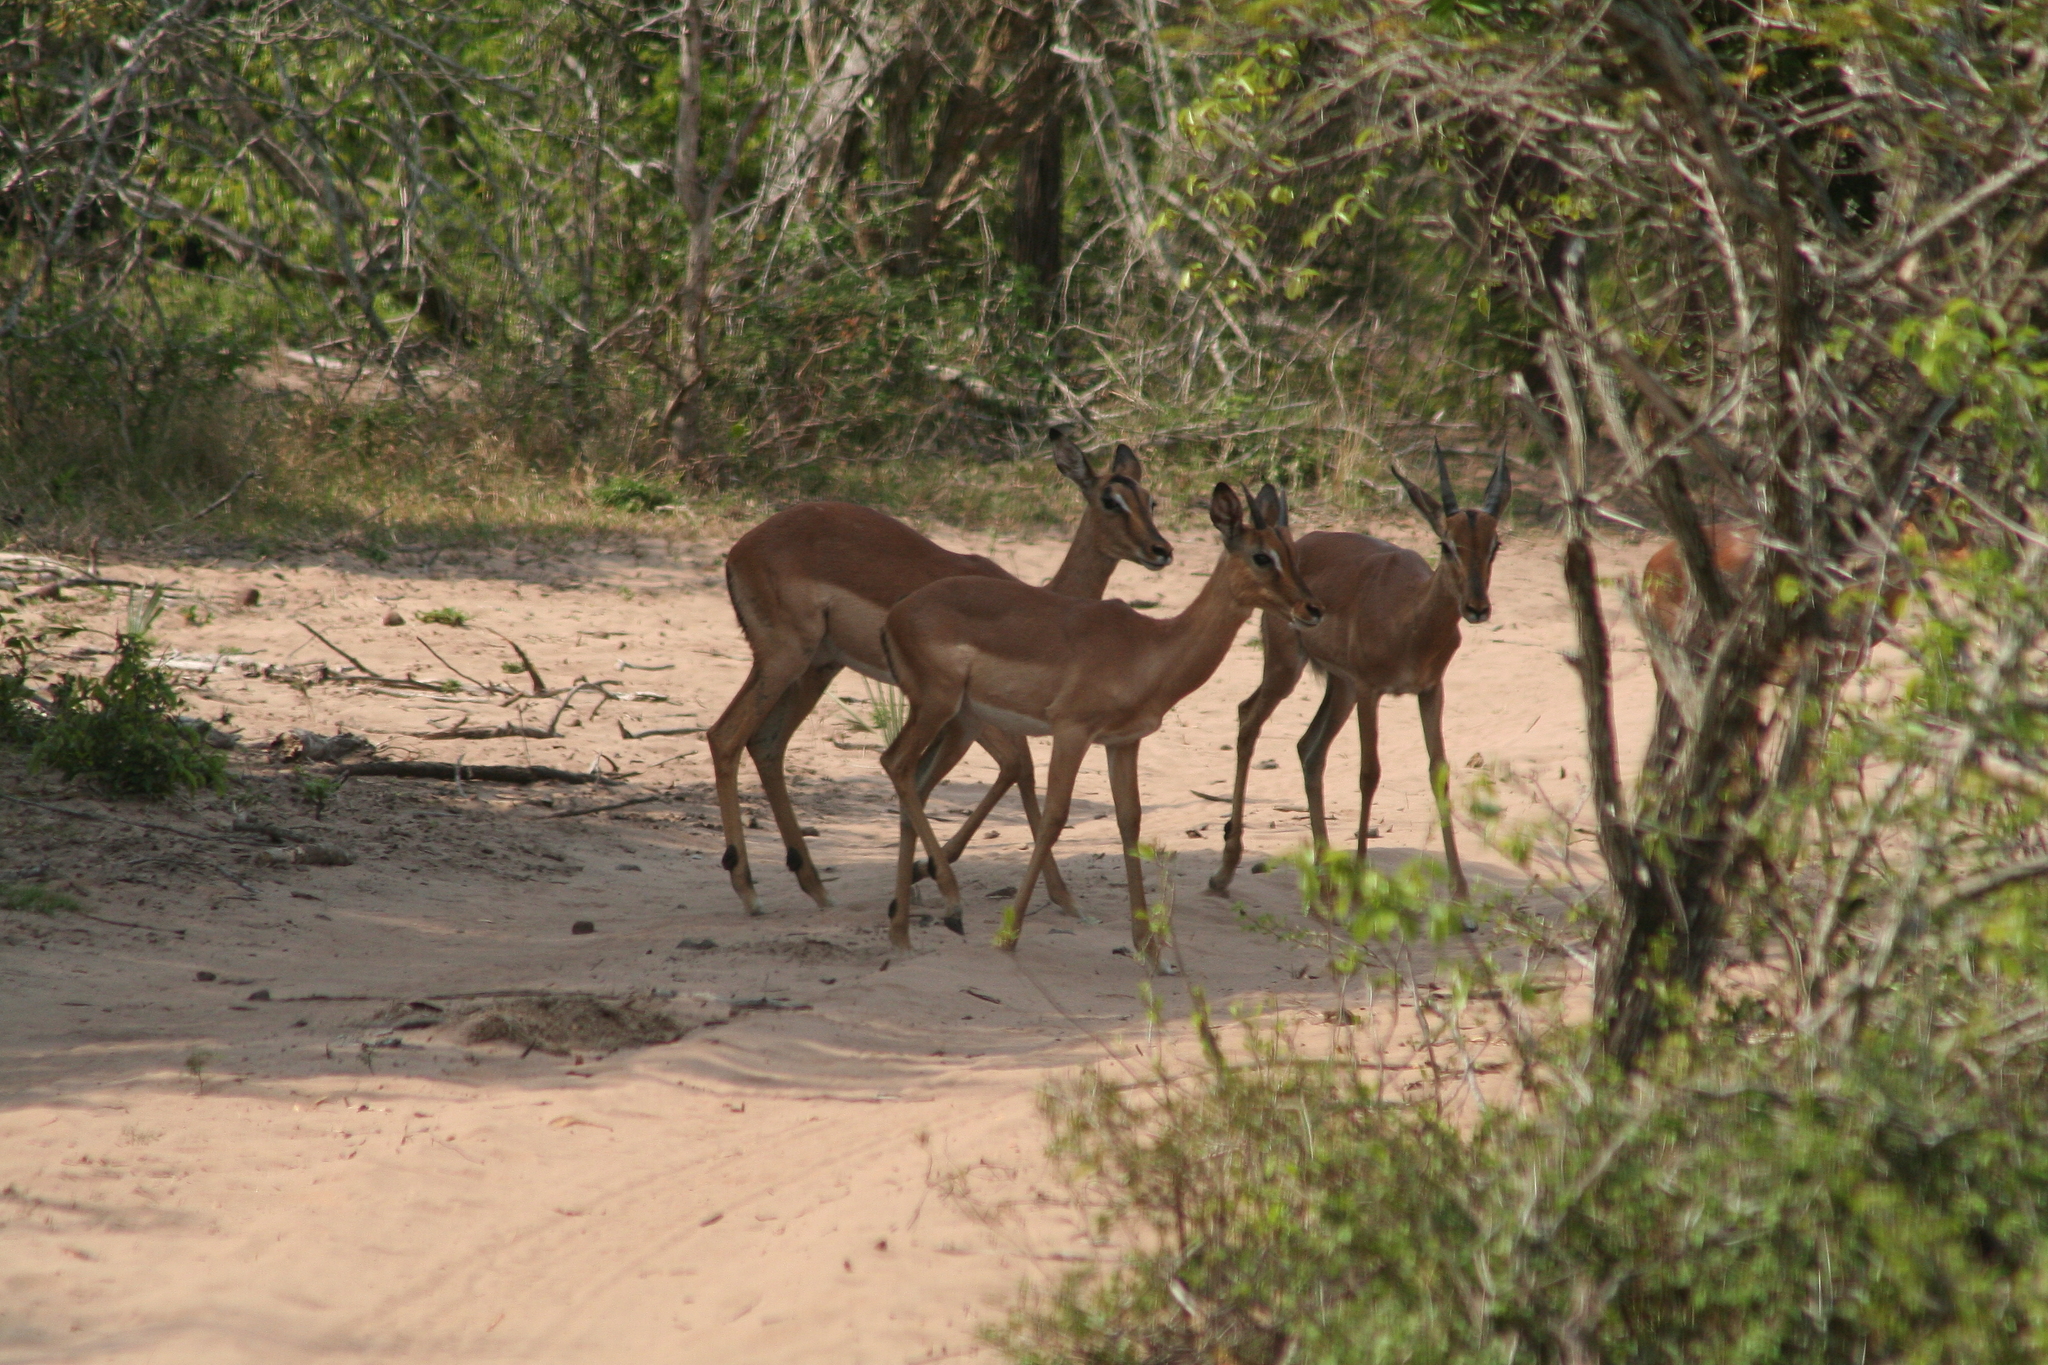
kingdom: Animalia
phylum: Chordata
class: Mammalia
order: Artiodactyla
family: Bovidae
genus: Aepyceros
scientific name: Aepyceros melampus
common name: Impala
